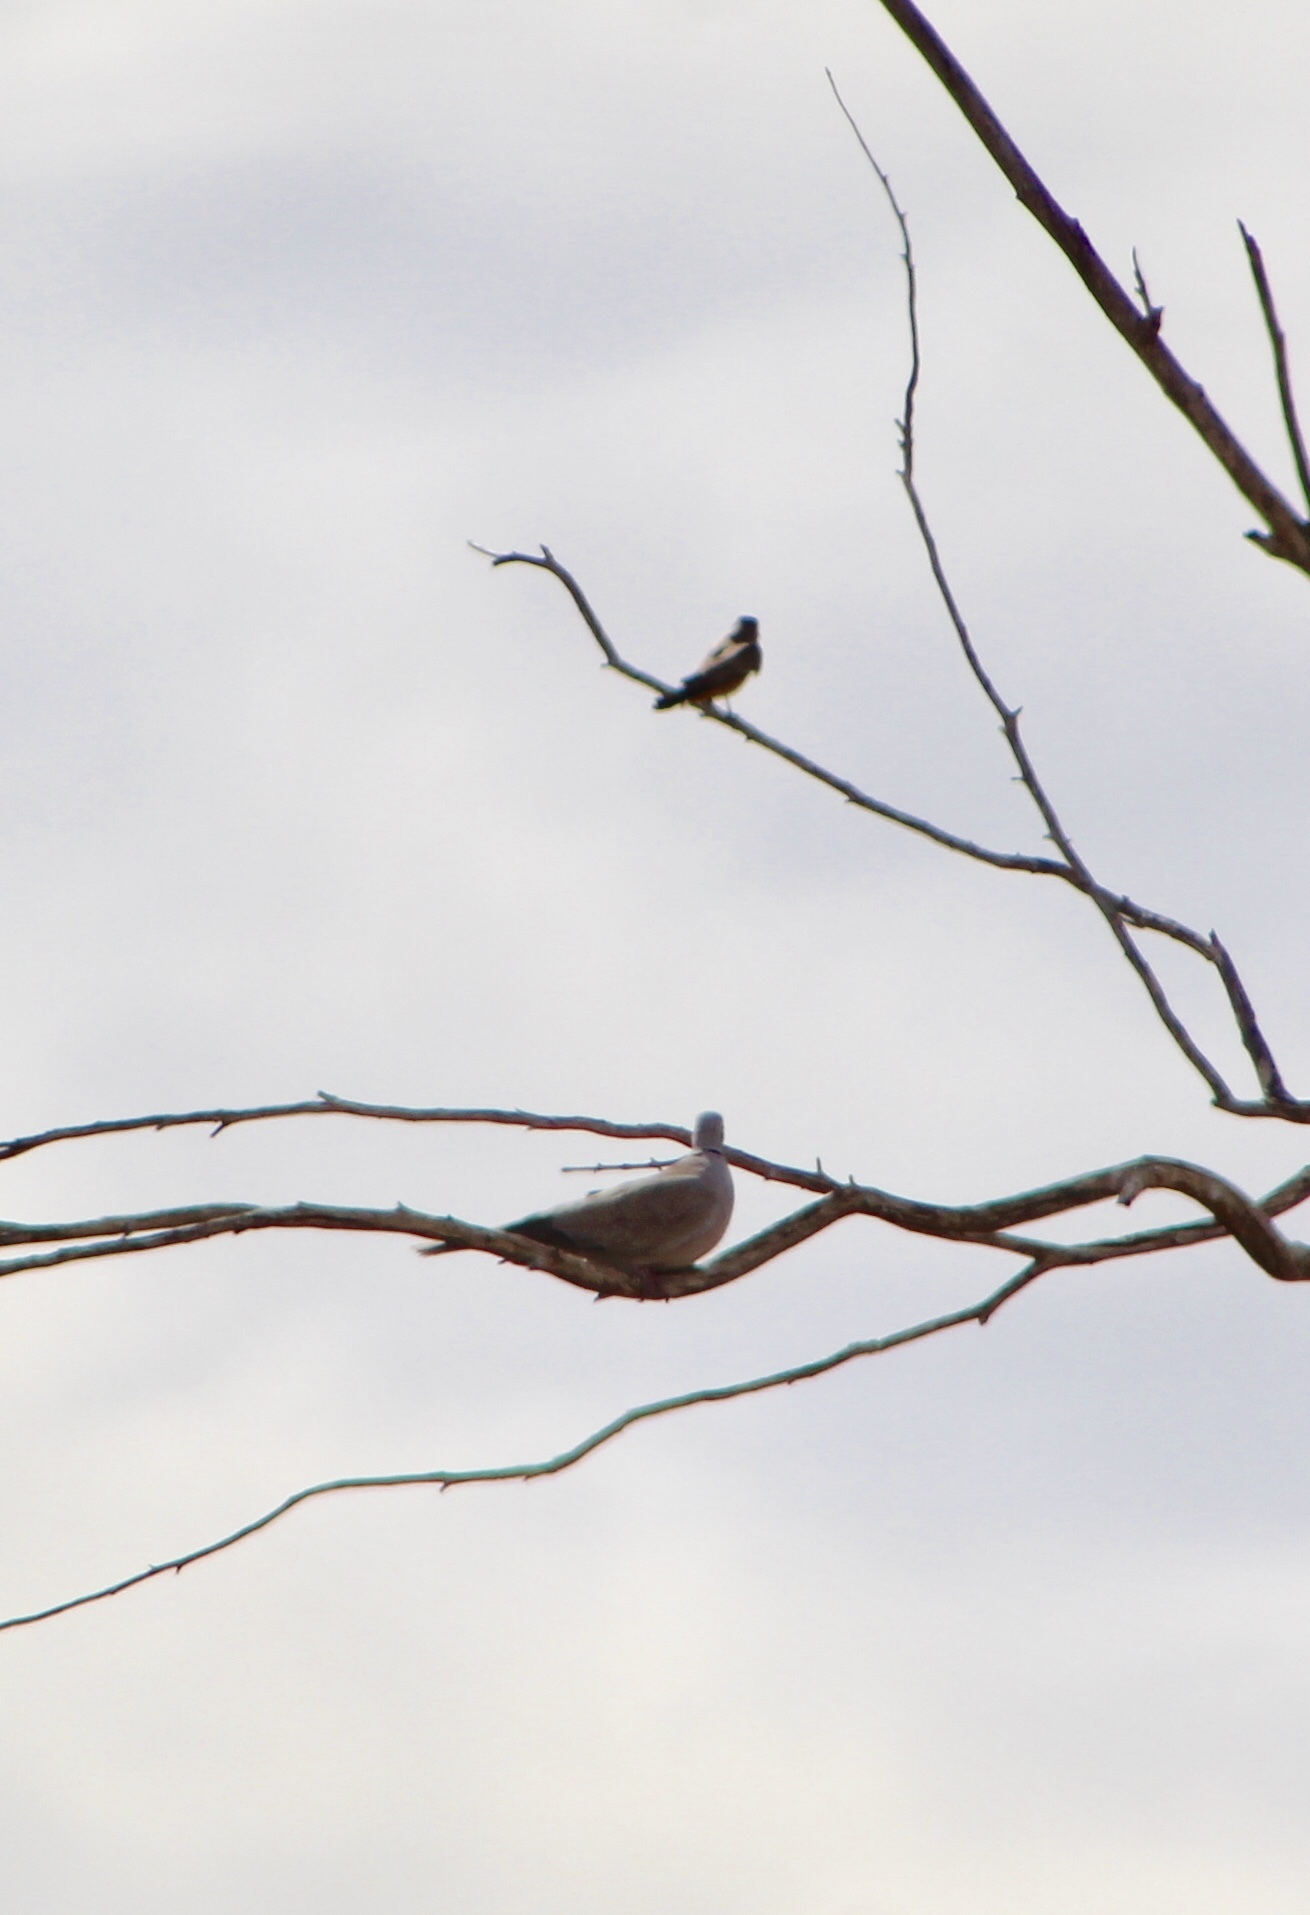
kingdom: Animalia
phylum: Chordata
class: Aves
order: Columbiformes
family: Columbidae
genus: Streptopelia
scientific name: Streptopelia decaocto
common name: Eurasian collared dove
